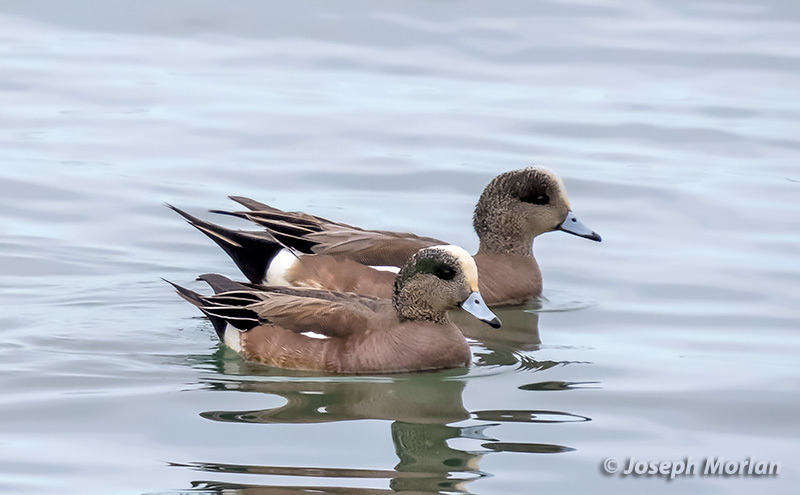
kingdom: Animalia
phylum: Chordata
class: Aves
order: Anseriformes
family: Anatidae
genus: Mareca
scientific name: Mareca americana
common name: American wigeon
